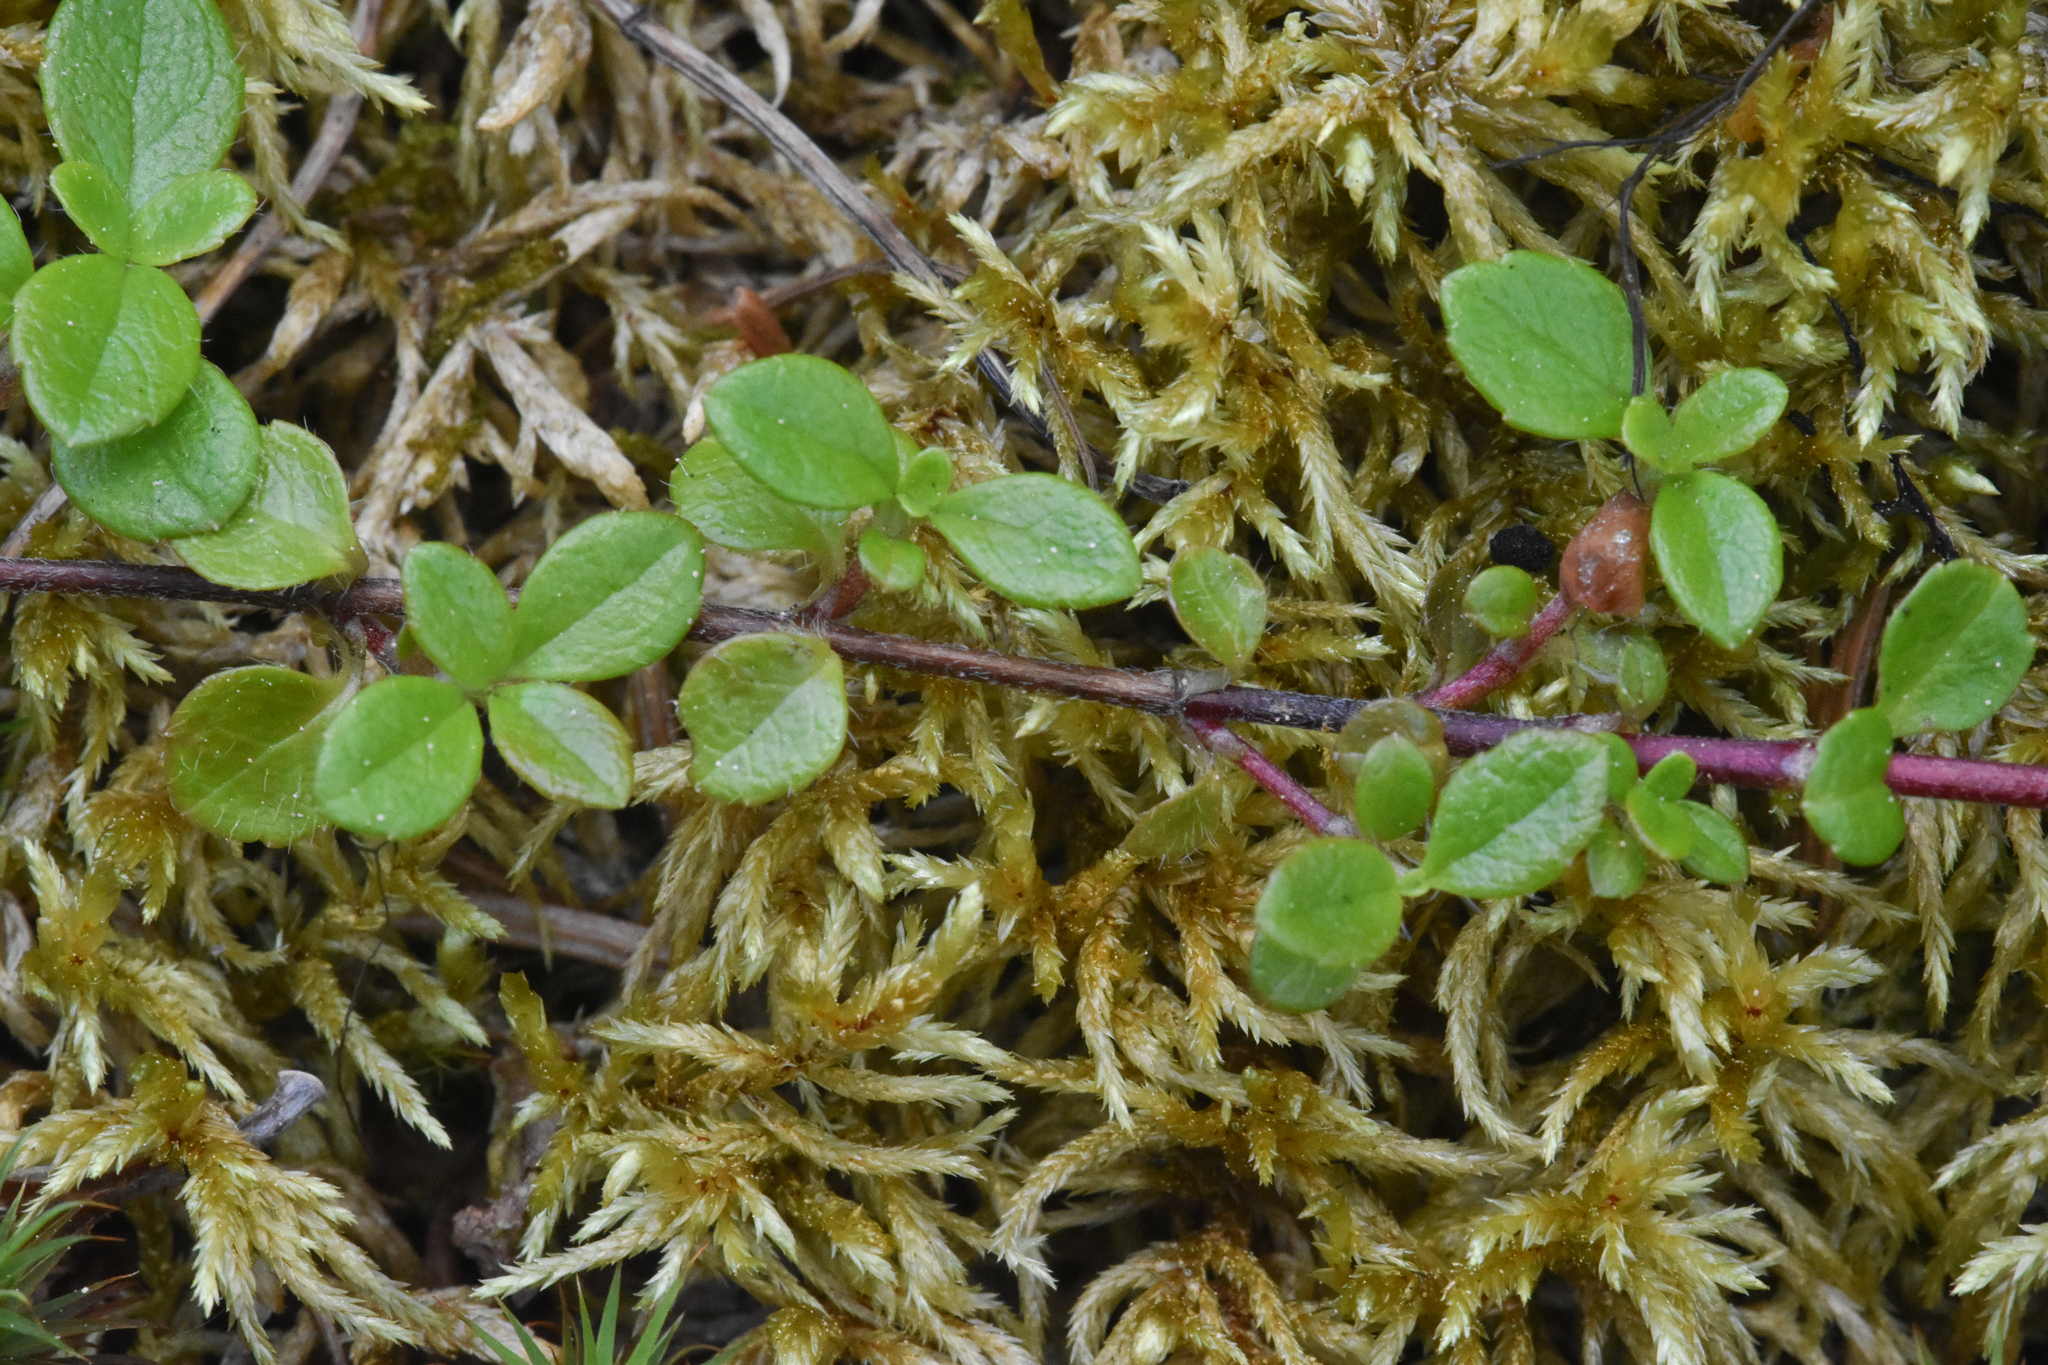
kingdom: Plantae
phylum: Tracheophyta
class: Magnoliopsida
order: Dipsacales
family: Caprifoliaceae
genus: Linnaea
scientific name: Linnaea borealis
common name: Twinflower
